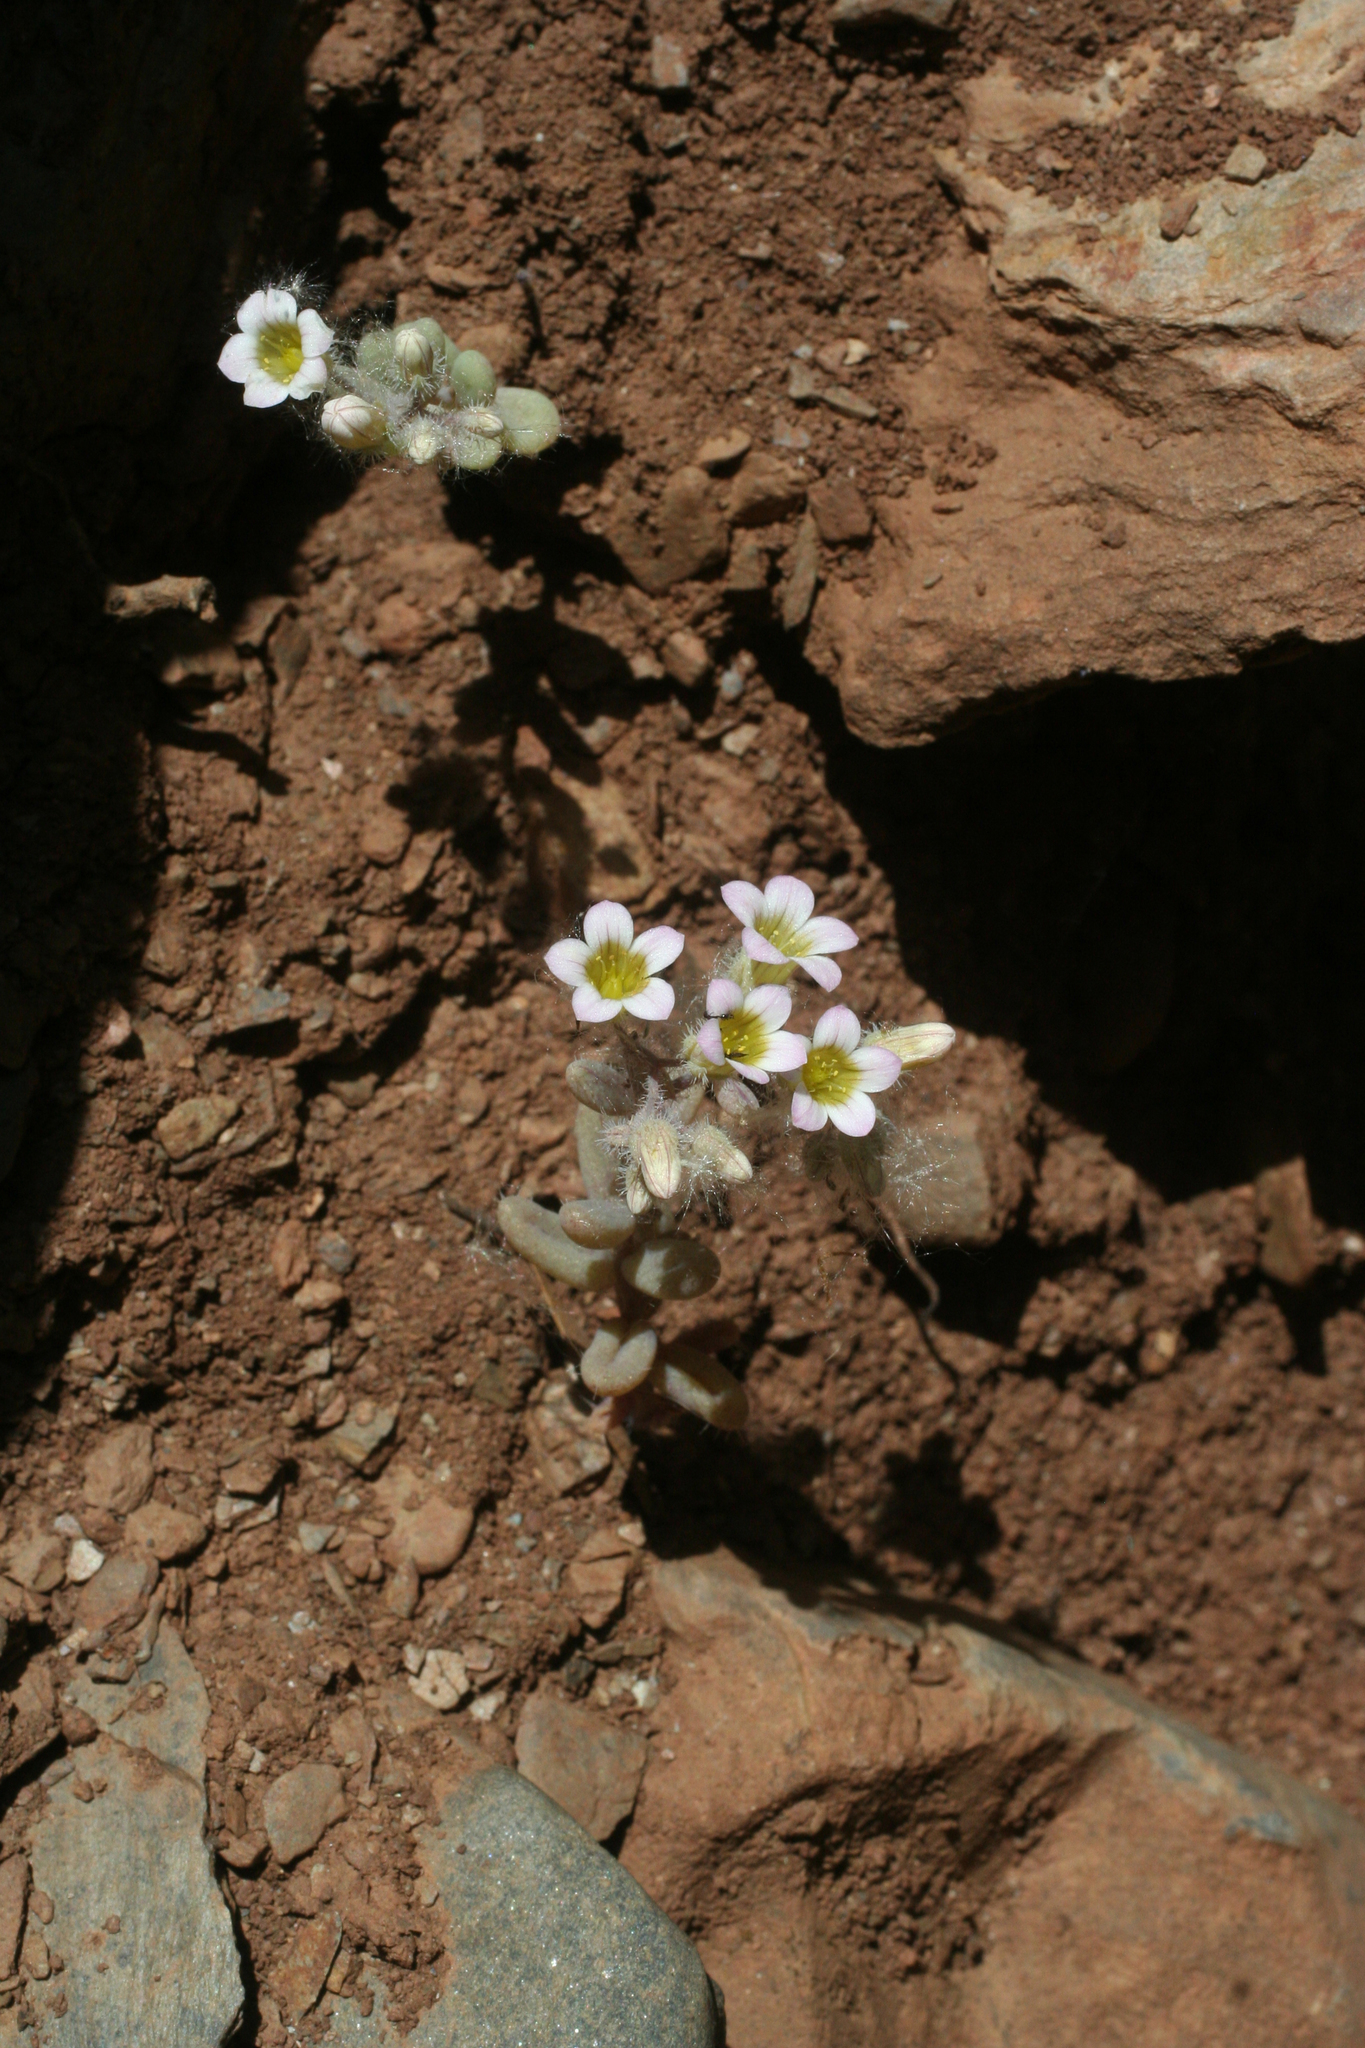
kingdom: Plantae
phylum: Tracheophyta
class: Magnoliopsida
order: Saxifragales
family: Crassulaceae
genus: Sedum
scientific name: Sedum mucizonia
